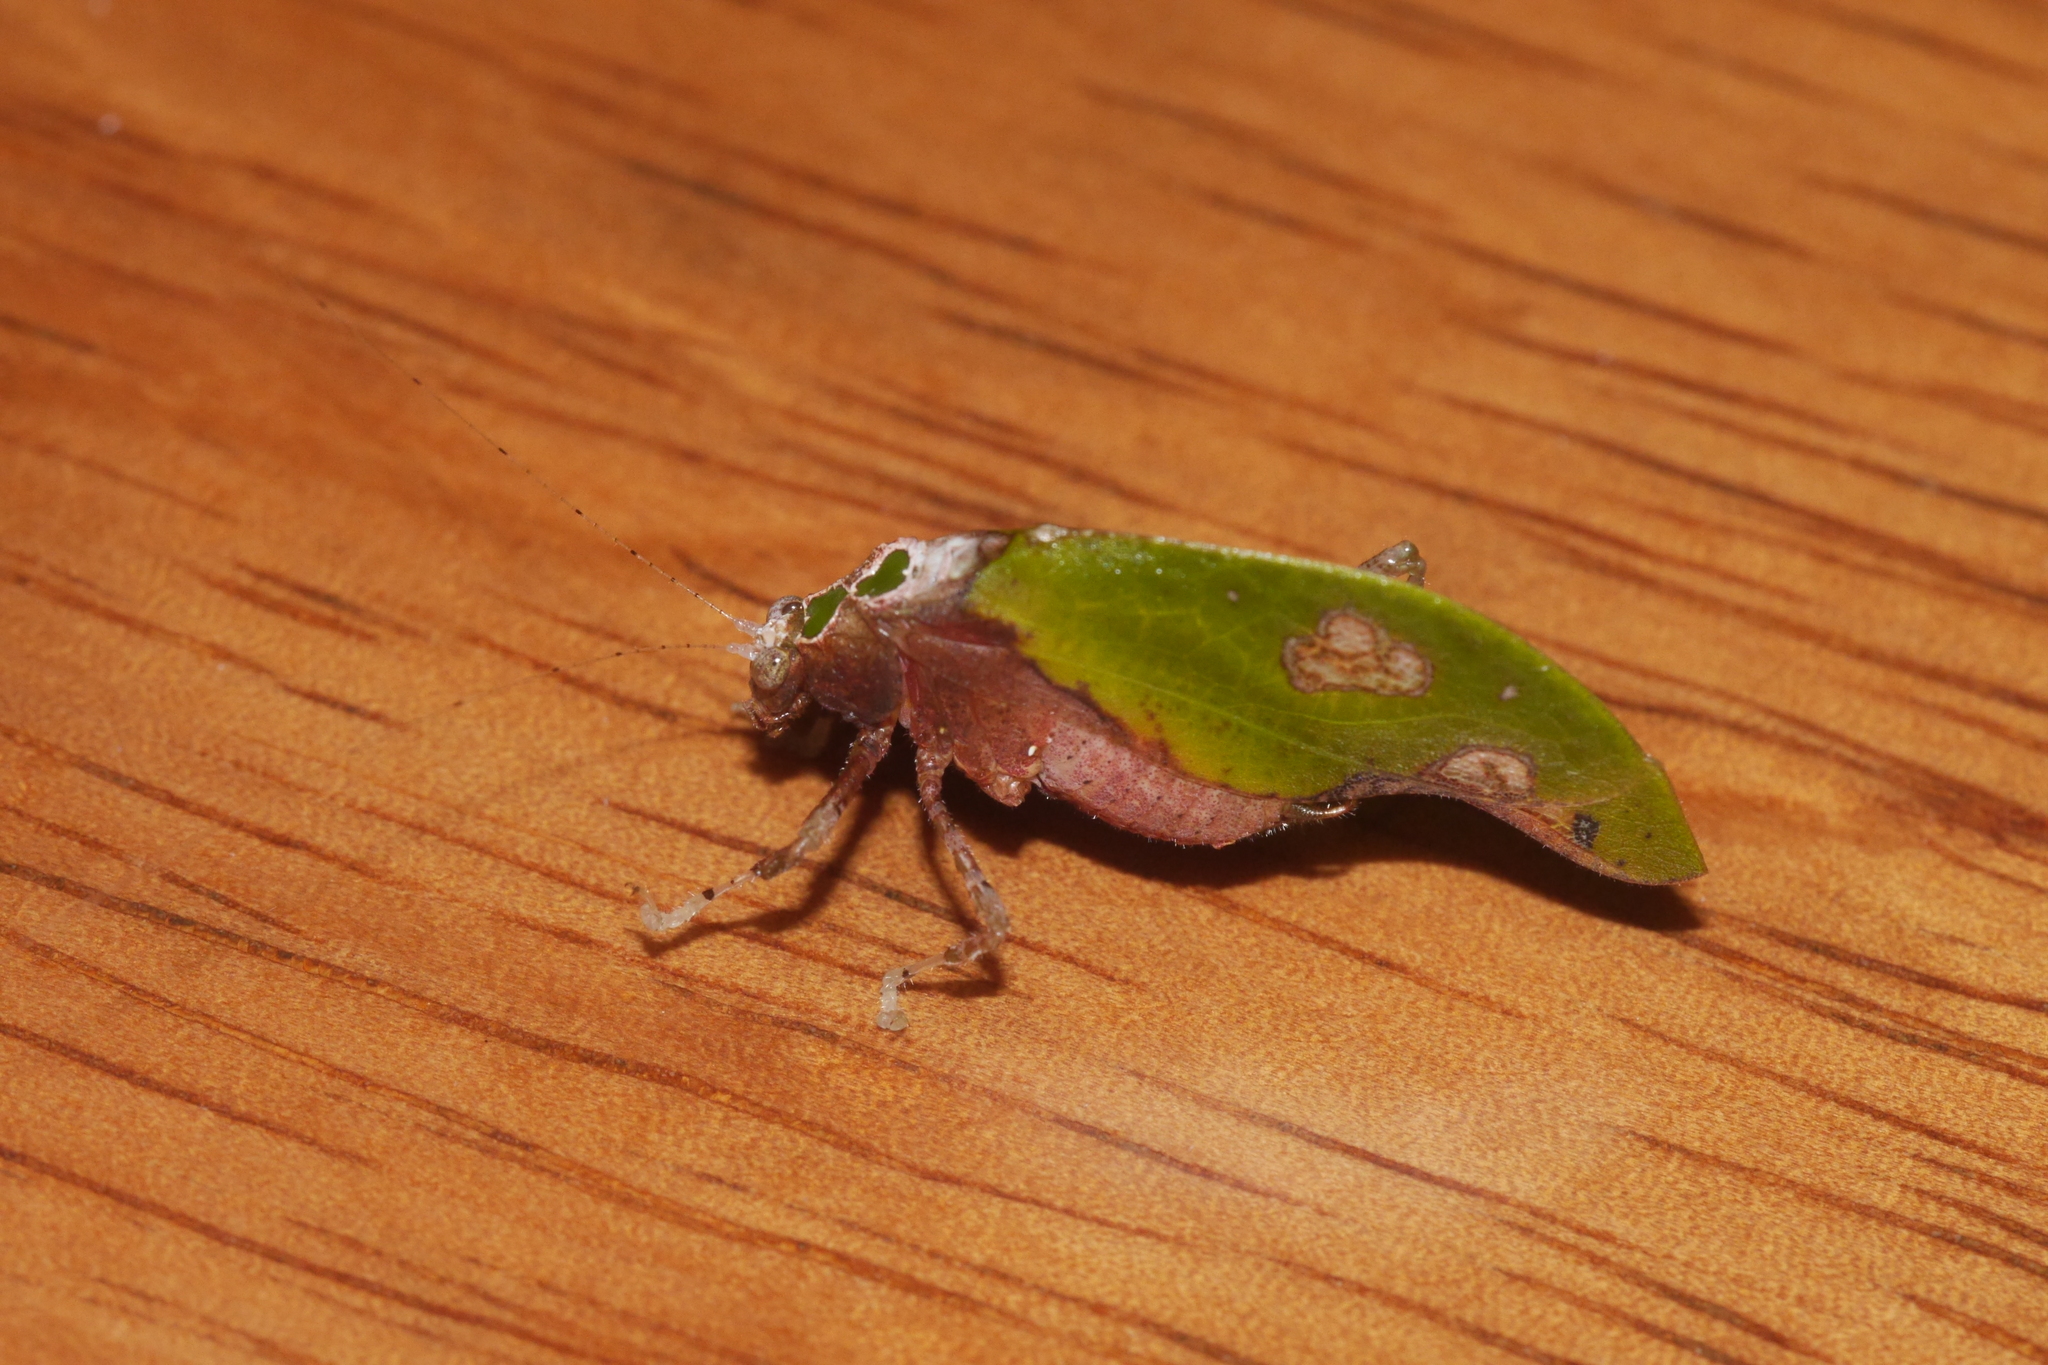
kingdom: Animalia
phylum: Arthropoda
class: Insecta
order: Orthoptera
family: Tettigoniidae
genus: Pycnopalpa
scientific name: Pycnopalpa bicordata
